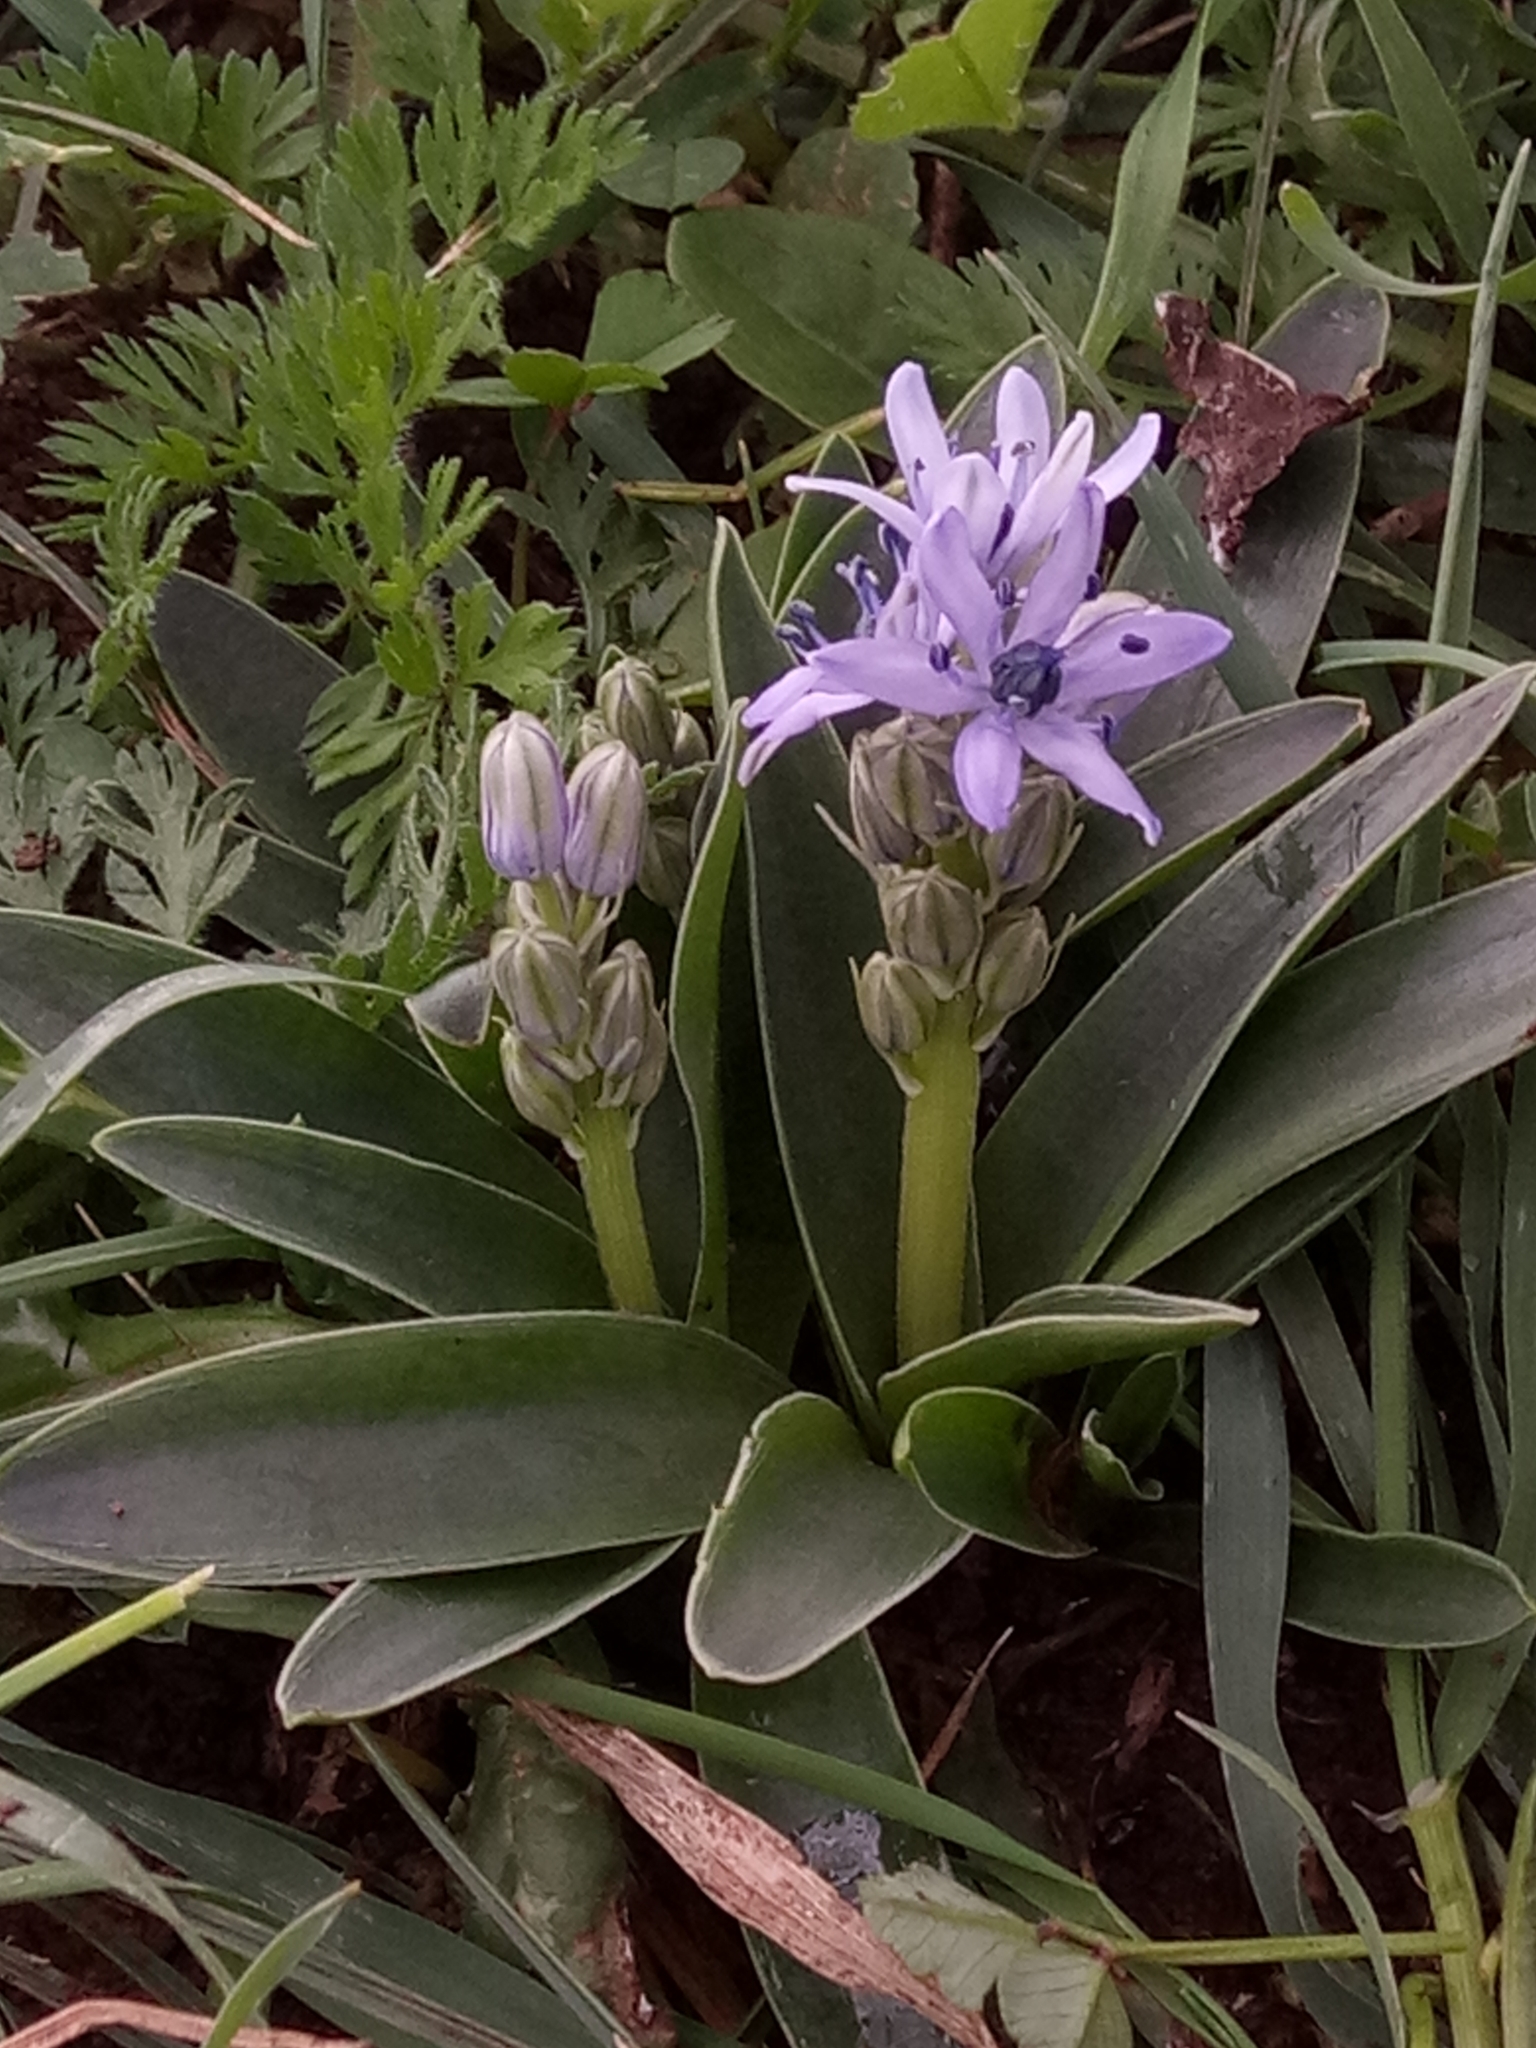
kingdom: Plantae
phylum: Tracheophyta
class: Liliopsida
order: Asparagales
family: Asparagaceae
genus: Hyacinthoides
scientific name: Hyacinthoides lingulata
